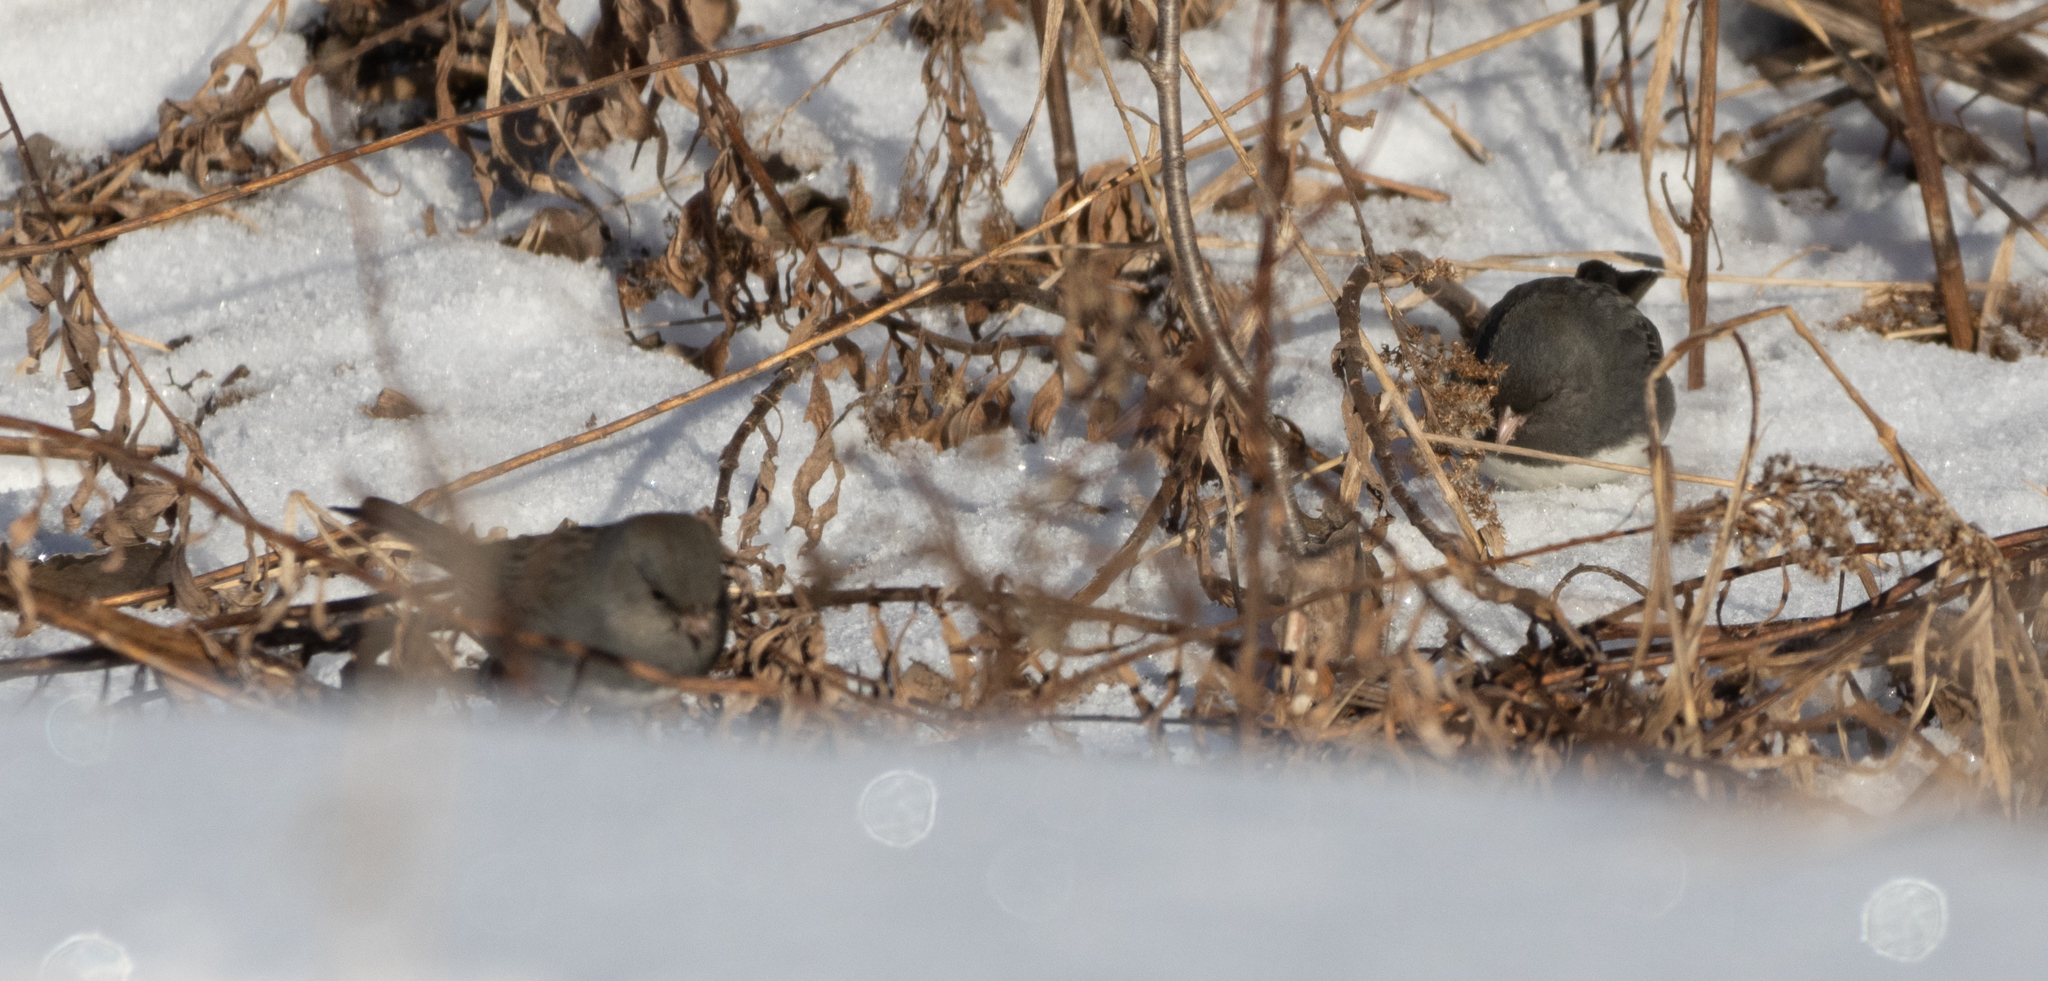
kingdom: Animalia
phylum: Chordata
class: Aves
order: Passeriformes
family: Passerellidae
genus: Junco
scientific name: Junco hyemalis
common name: Dark-eyed junco
